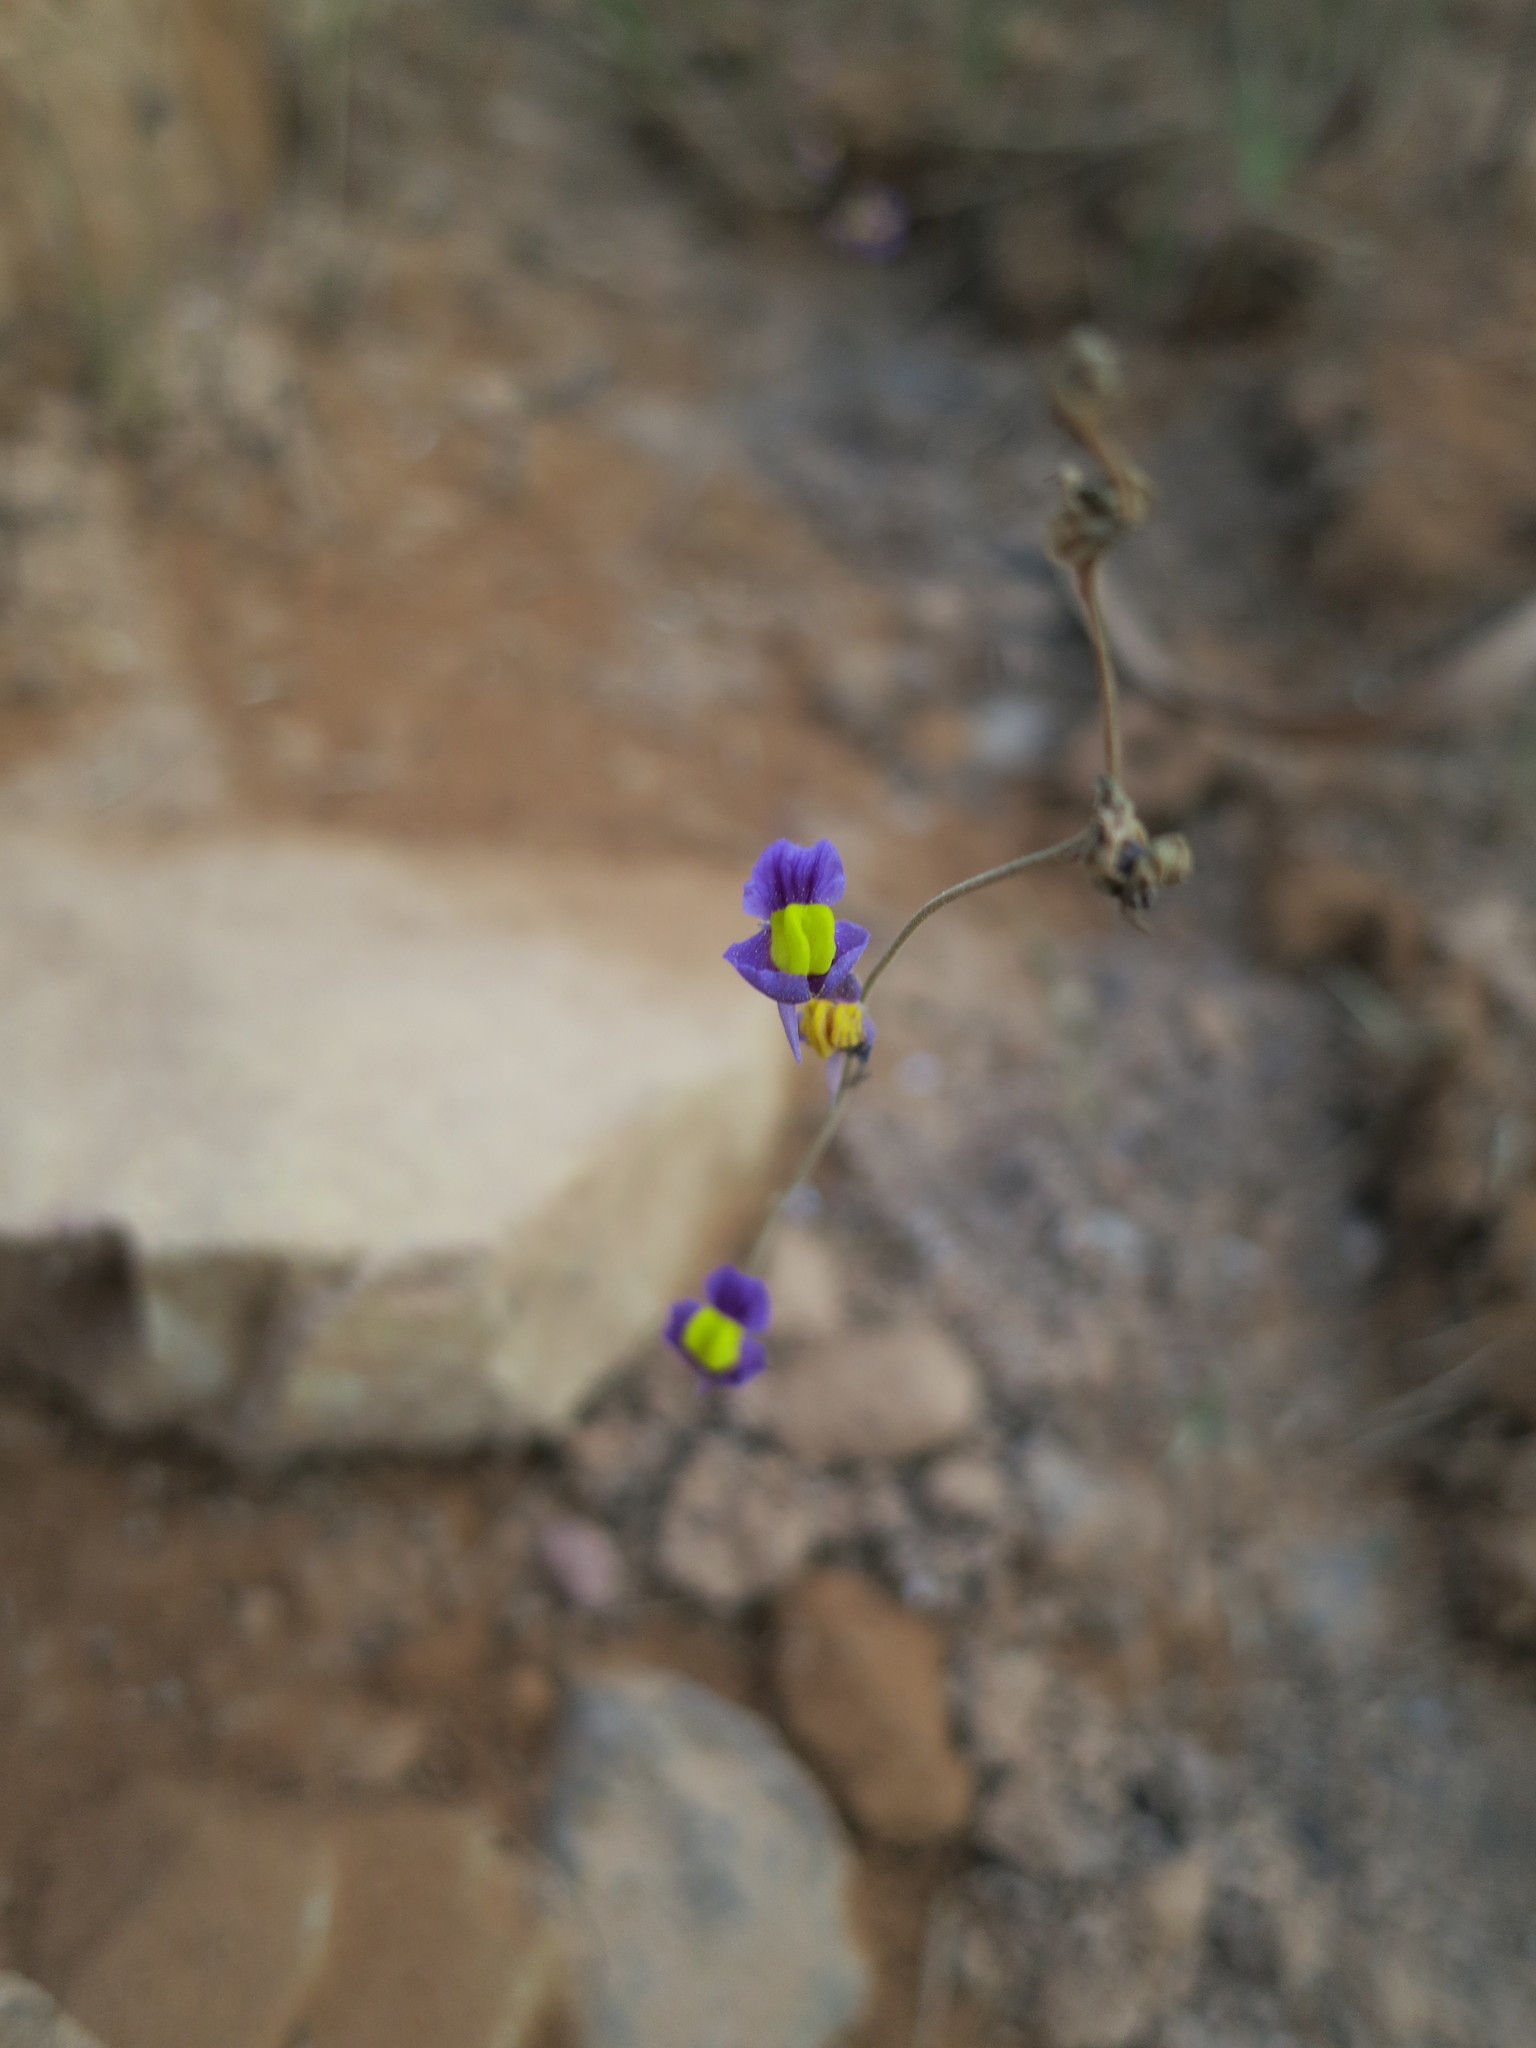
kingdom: Plantae
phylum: Tracheophyta
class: Magnoliopsida
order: Lamiales
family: Lentibulariaceae
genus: Utricularia
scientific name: Utricularia welwitschii
